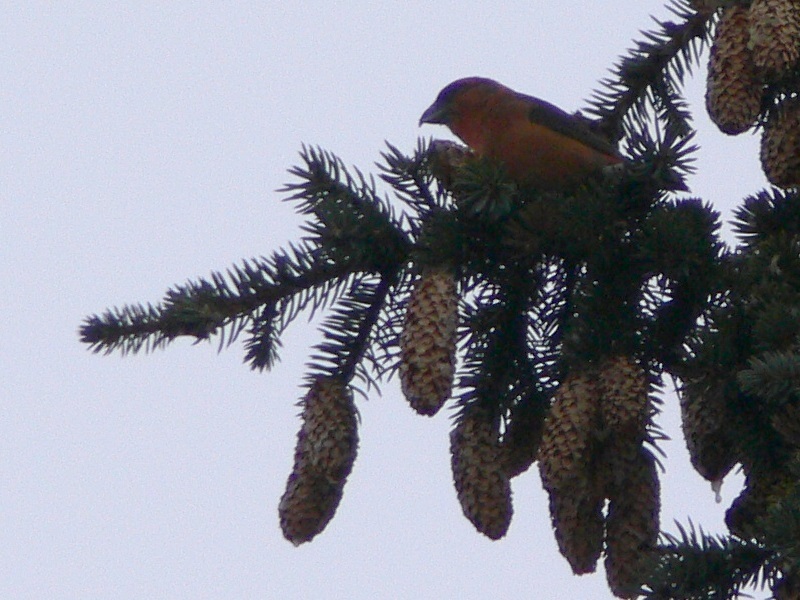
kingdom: Animalia
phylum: Chordata
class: Aves
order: Passeriformes
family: Fringillidae
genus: Loxia
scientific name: Loxia curvirostra
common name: Red crossbill
